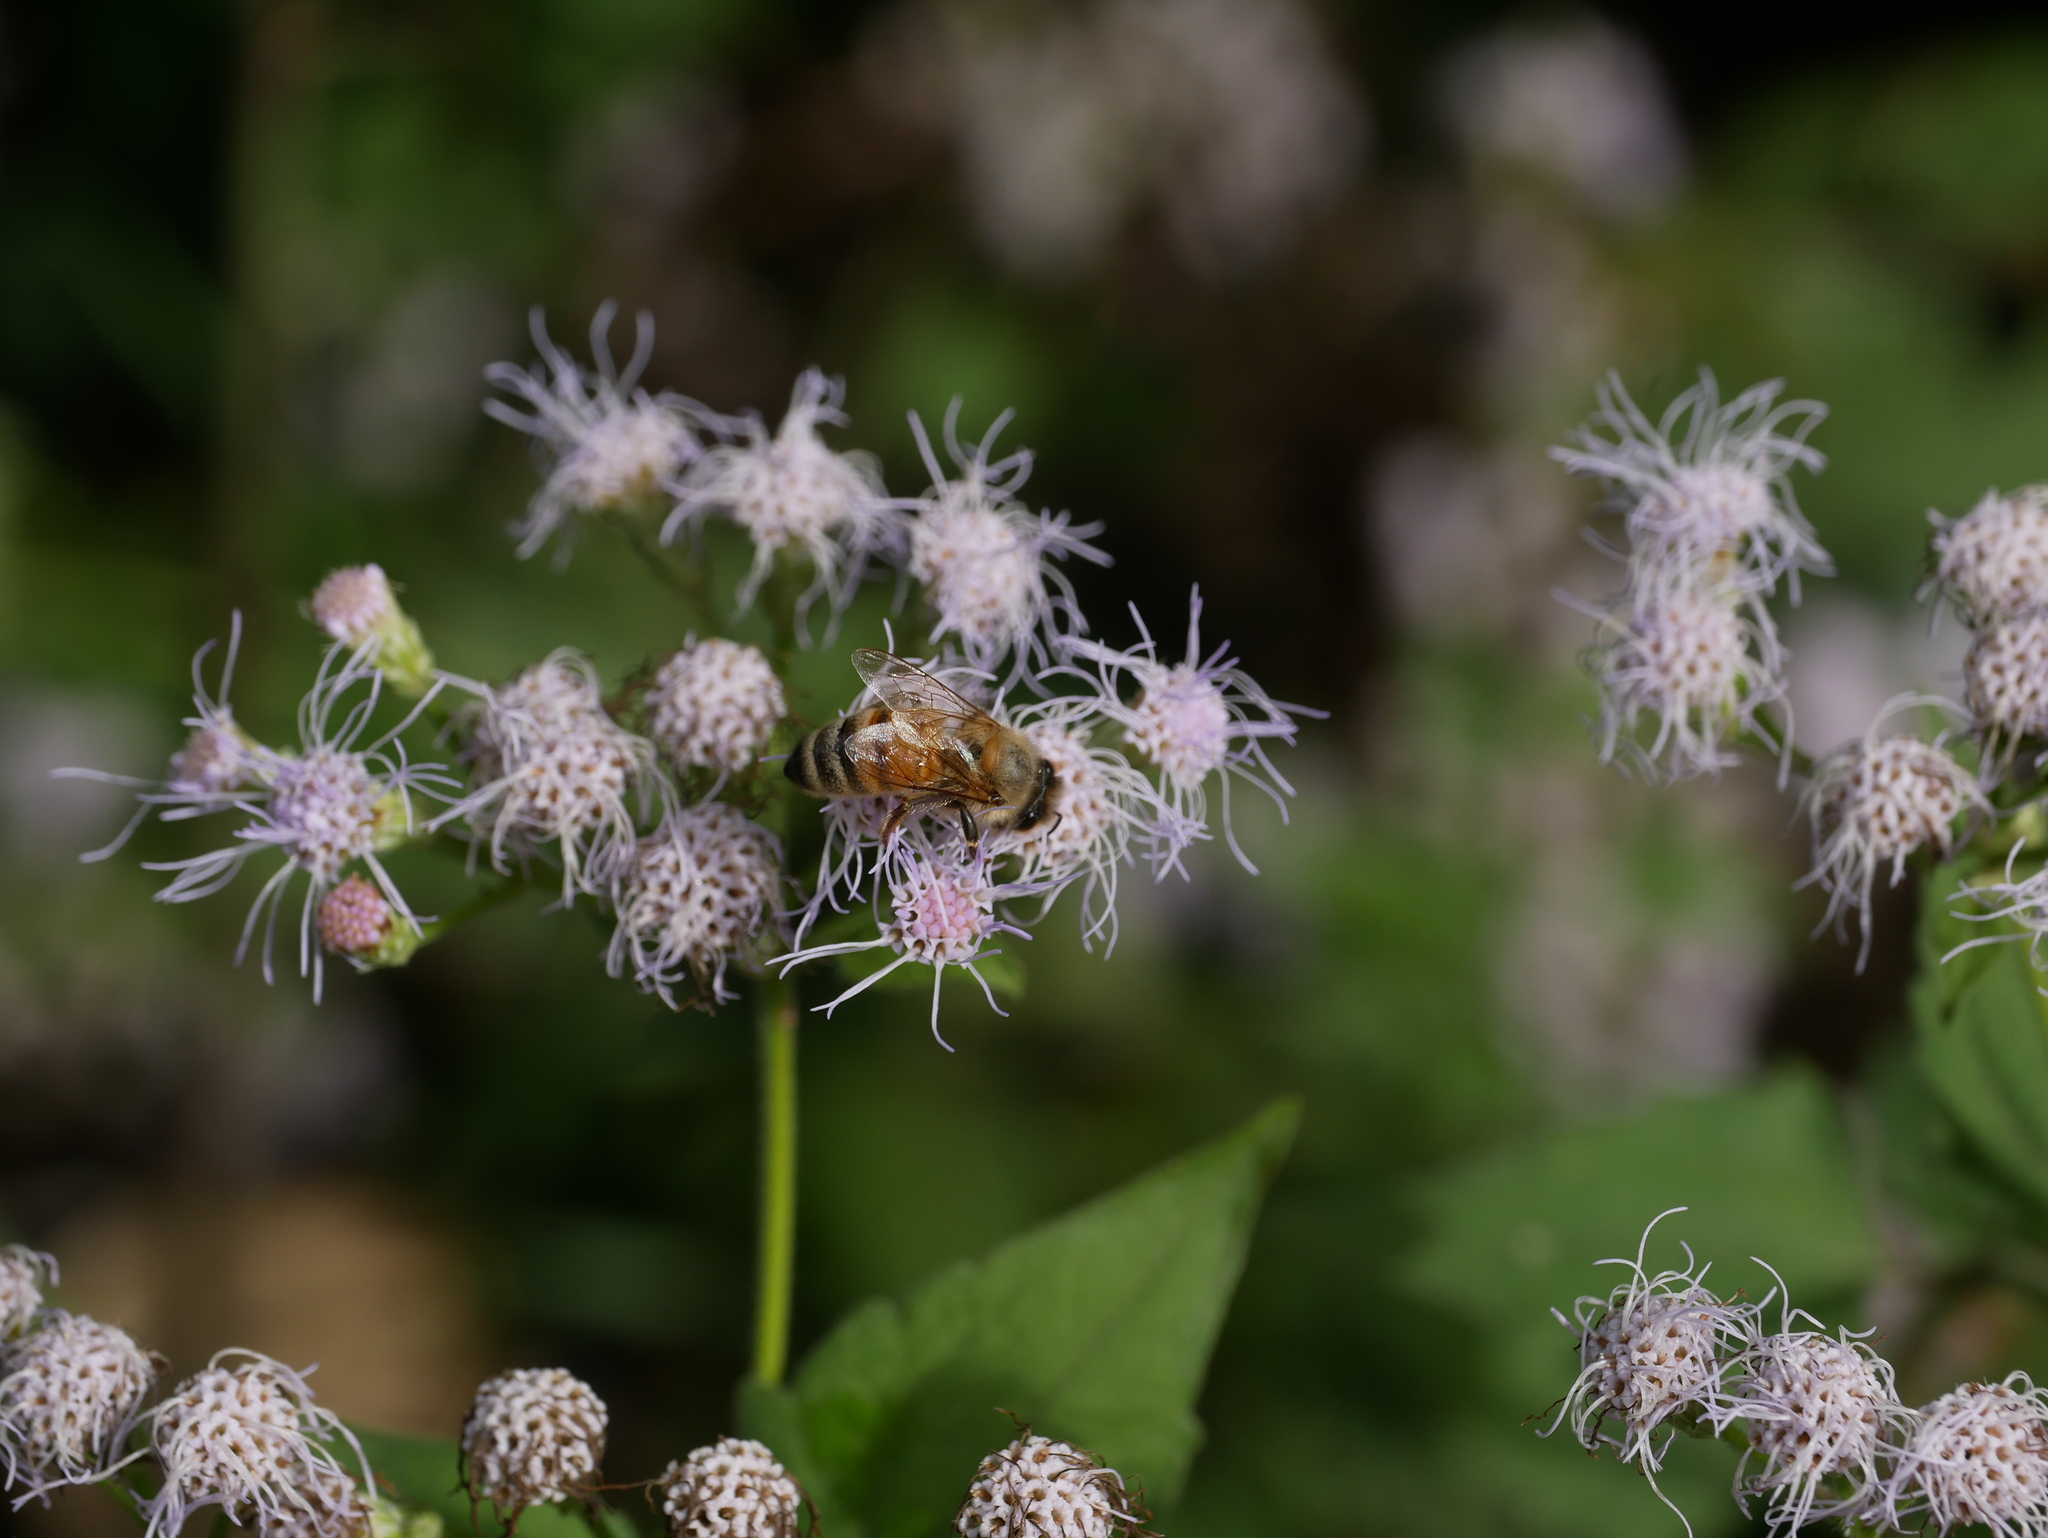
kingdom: Animalia
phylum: Arthropoda
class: Insecta
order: Hymenoptera
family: Apidae
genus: Apis
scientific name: Apis mellifera
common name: Honey bee
